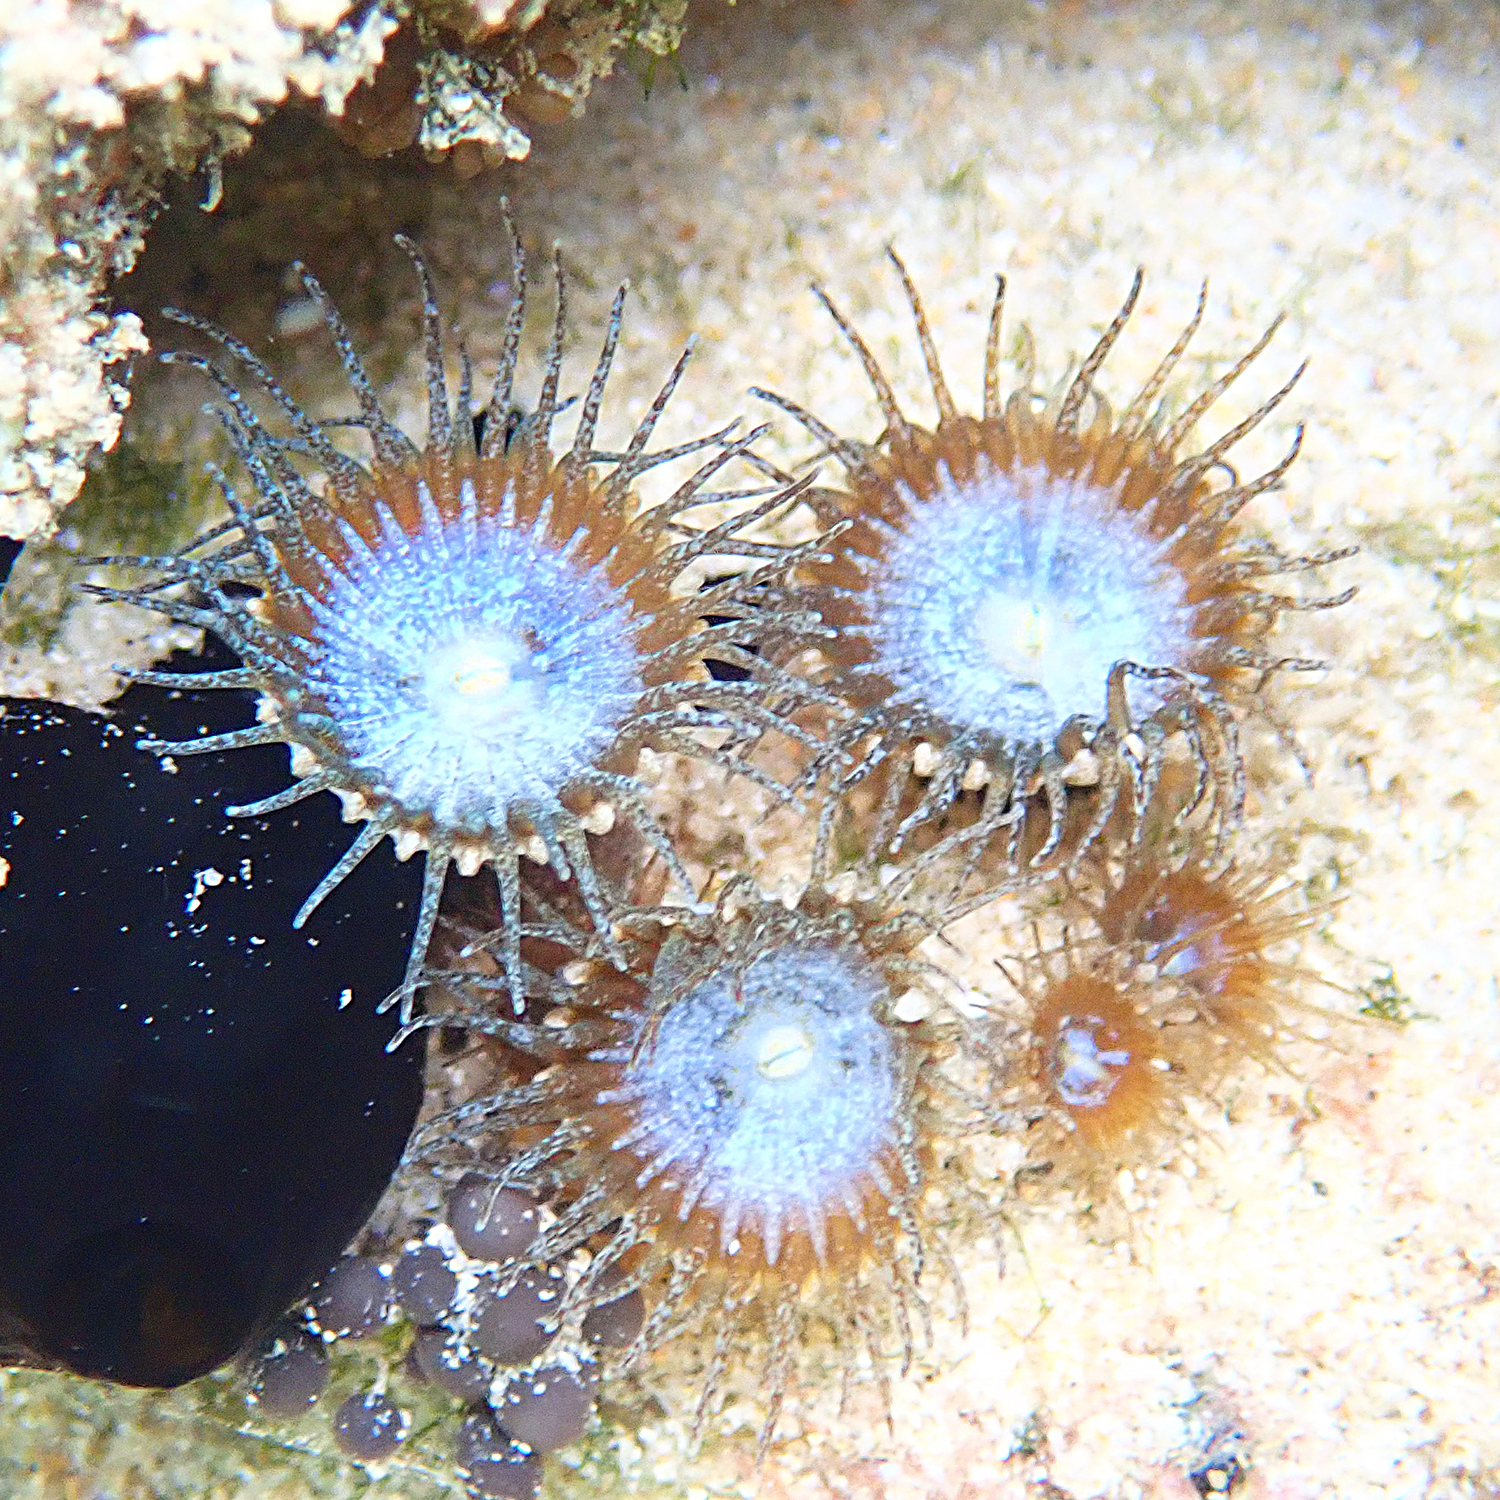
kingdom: Animalia
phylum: Cnidaria
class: Anthozoa
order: Zoantharia
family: Sphenopidae
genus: Palythoa
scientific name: Palythoa mutuki
